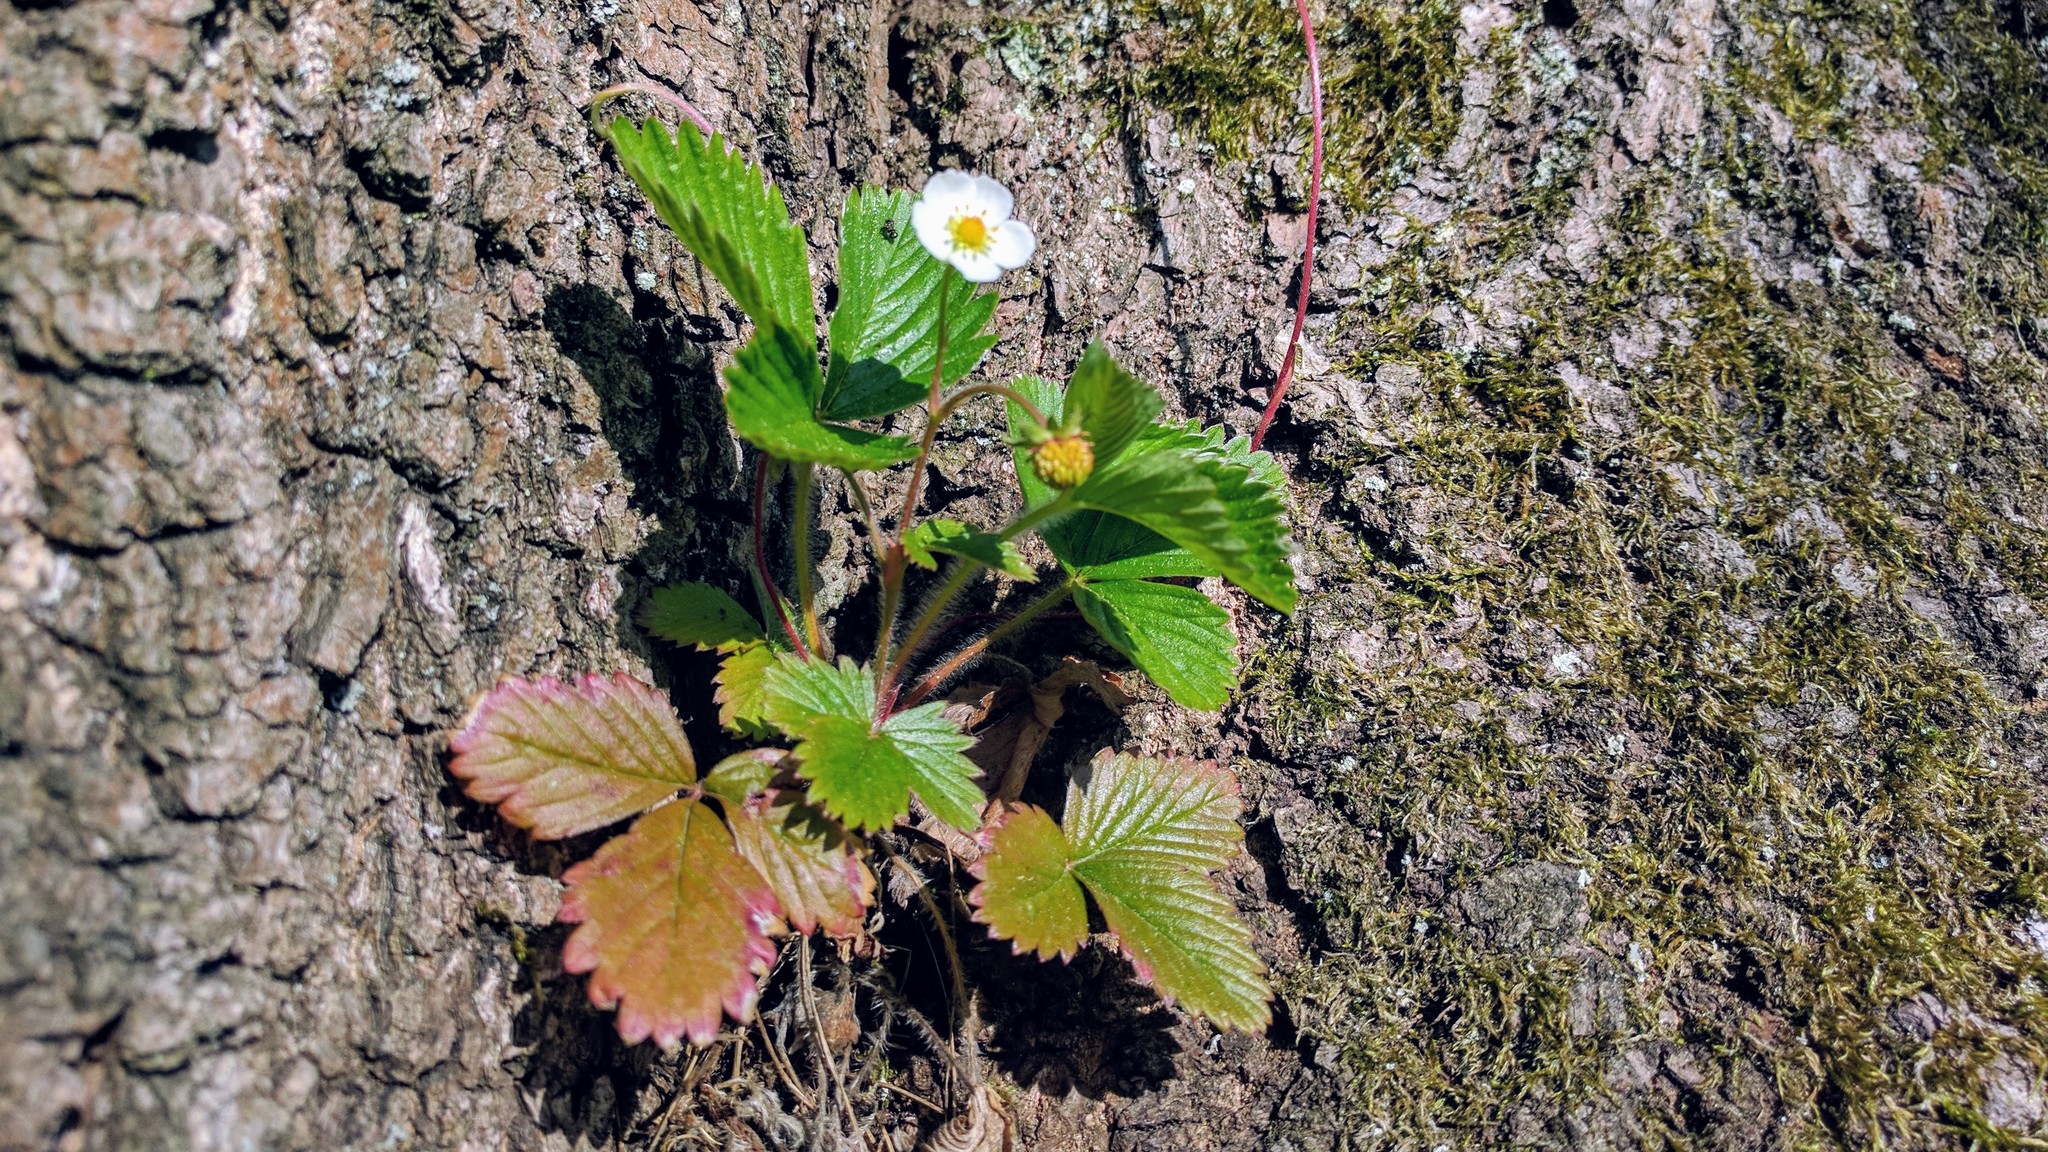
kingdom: Plantae
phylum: Tracheophyta
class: Magnoliopsida
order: Rosales
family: Rosaceae
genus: Fragaria
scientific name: Fragaria vesca
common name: Wild strawberry
